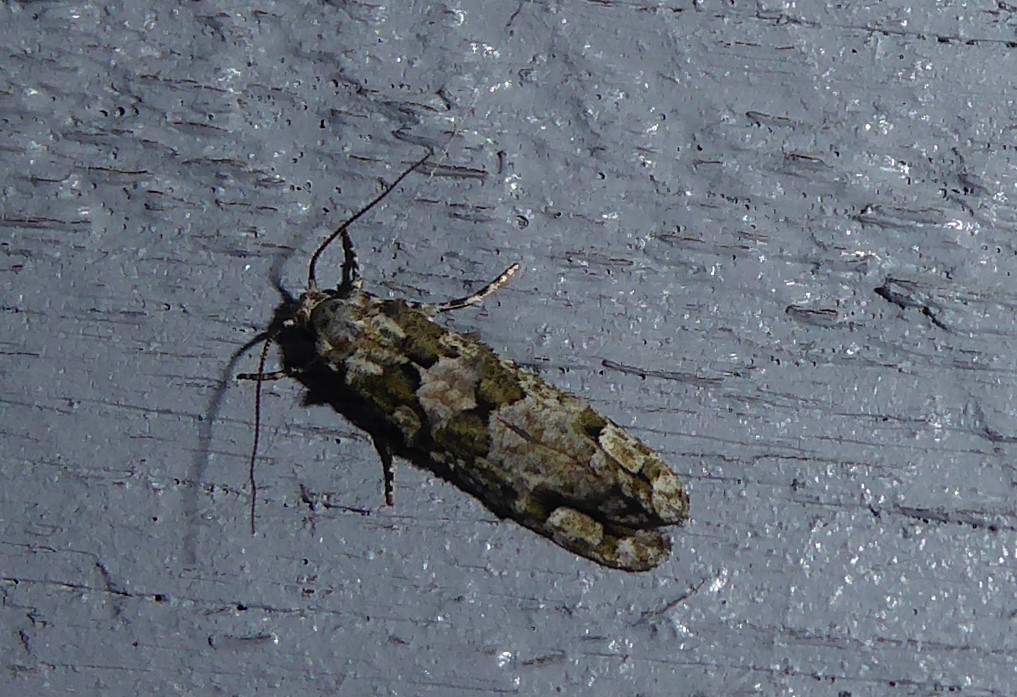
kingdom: Animalia
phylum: Arthropoda
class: Insecta
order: Lepidoptera
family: Tineidae
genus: Lysiphragma
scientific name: Lysiphragma howesii
